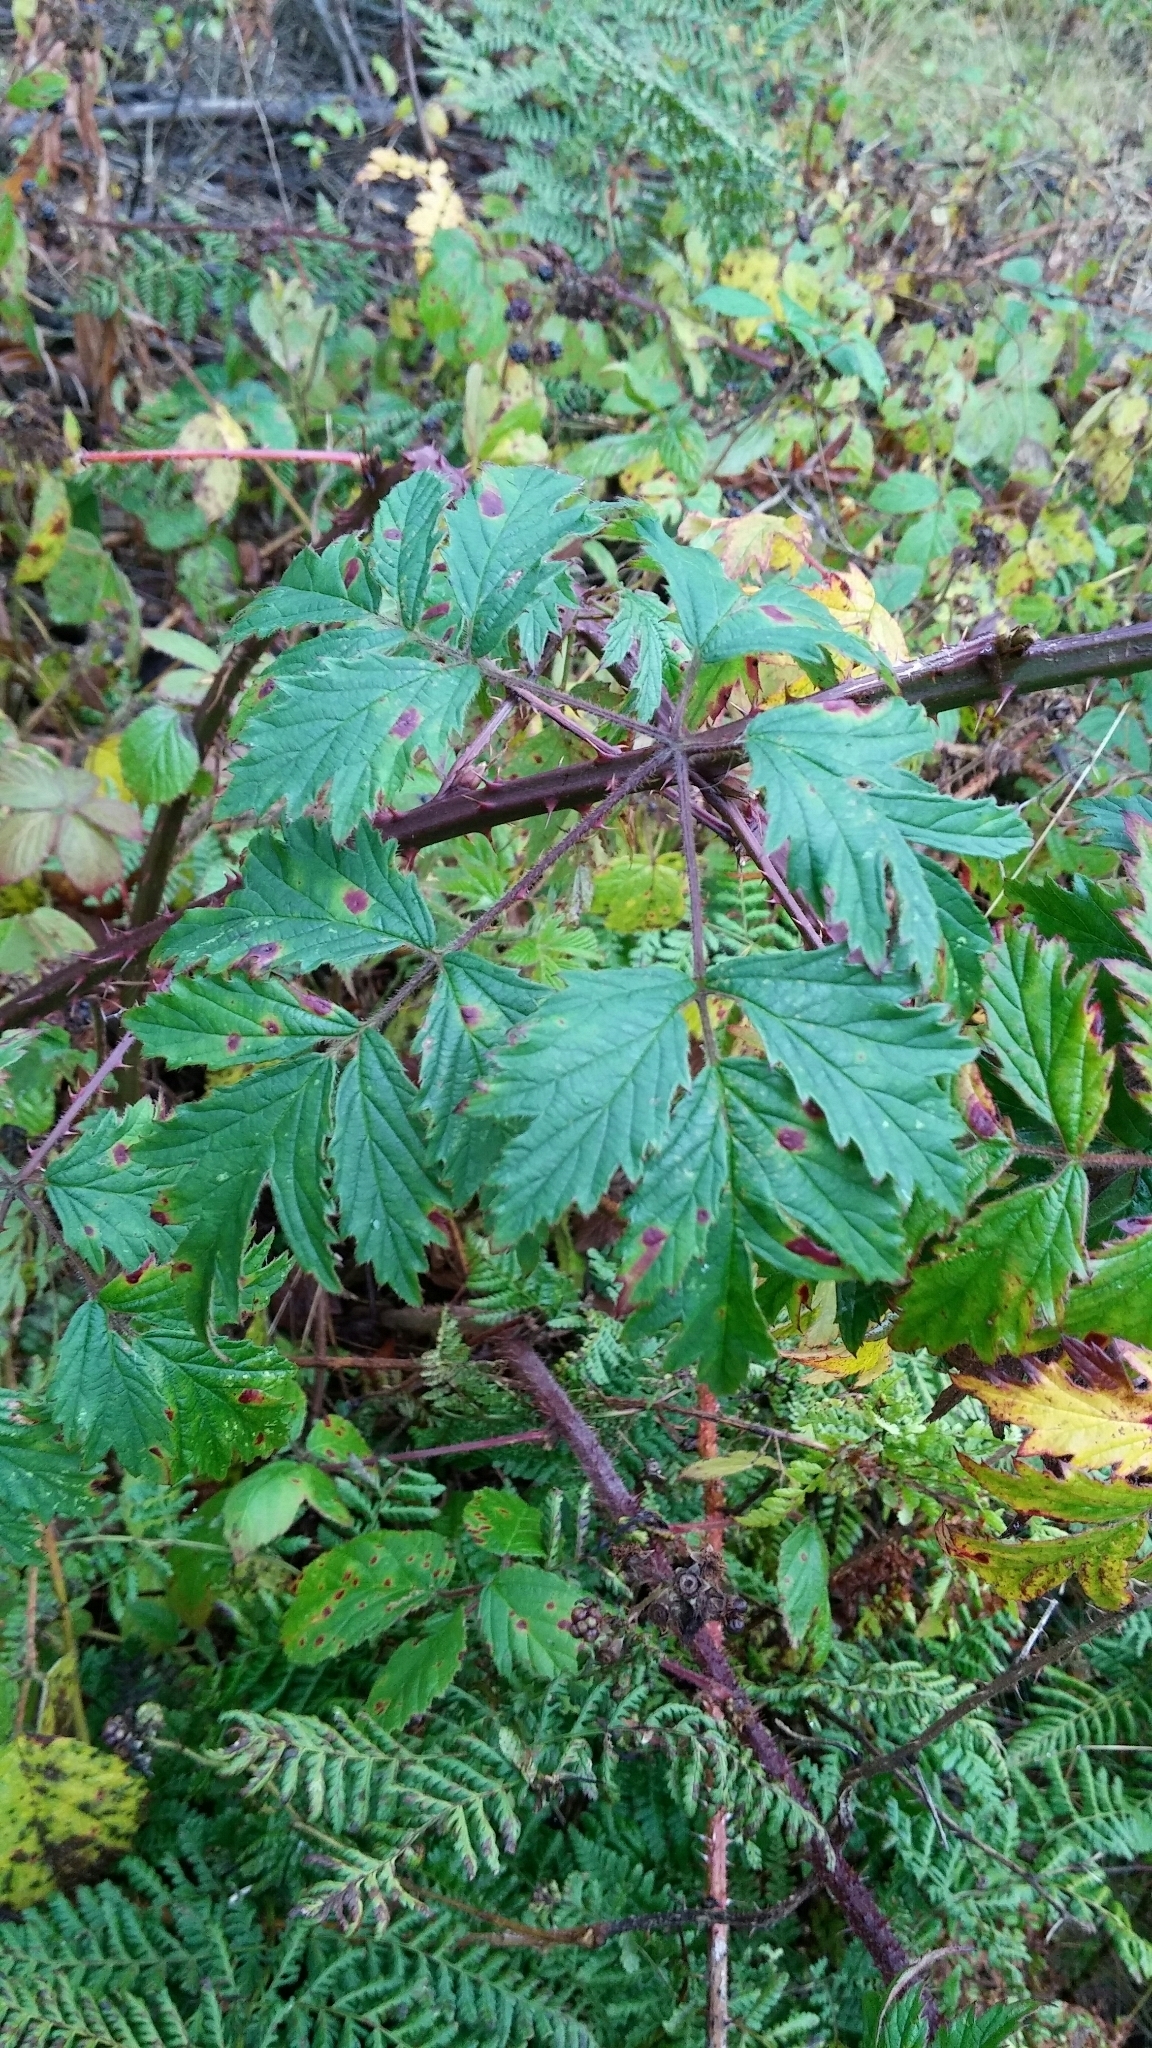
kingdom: Plantae
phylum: Tracheophyta
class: Magnoliopsida
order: Rosales
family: Rosaceae
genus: Rubus
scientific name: Rubus laciniatus
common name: Evergreen blackberry
